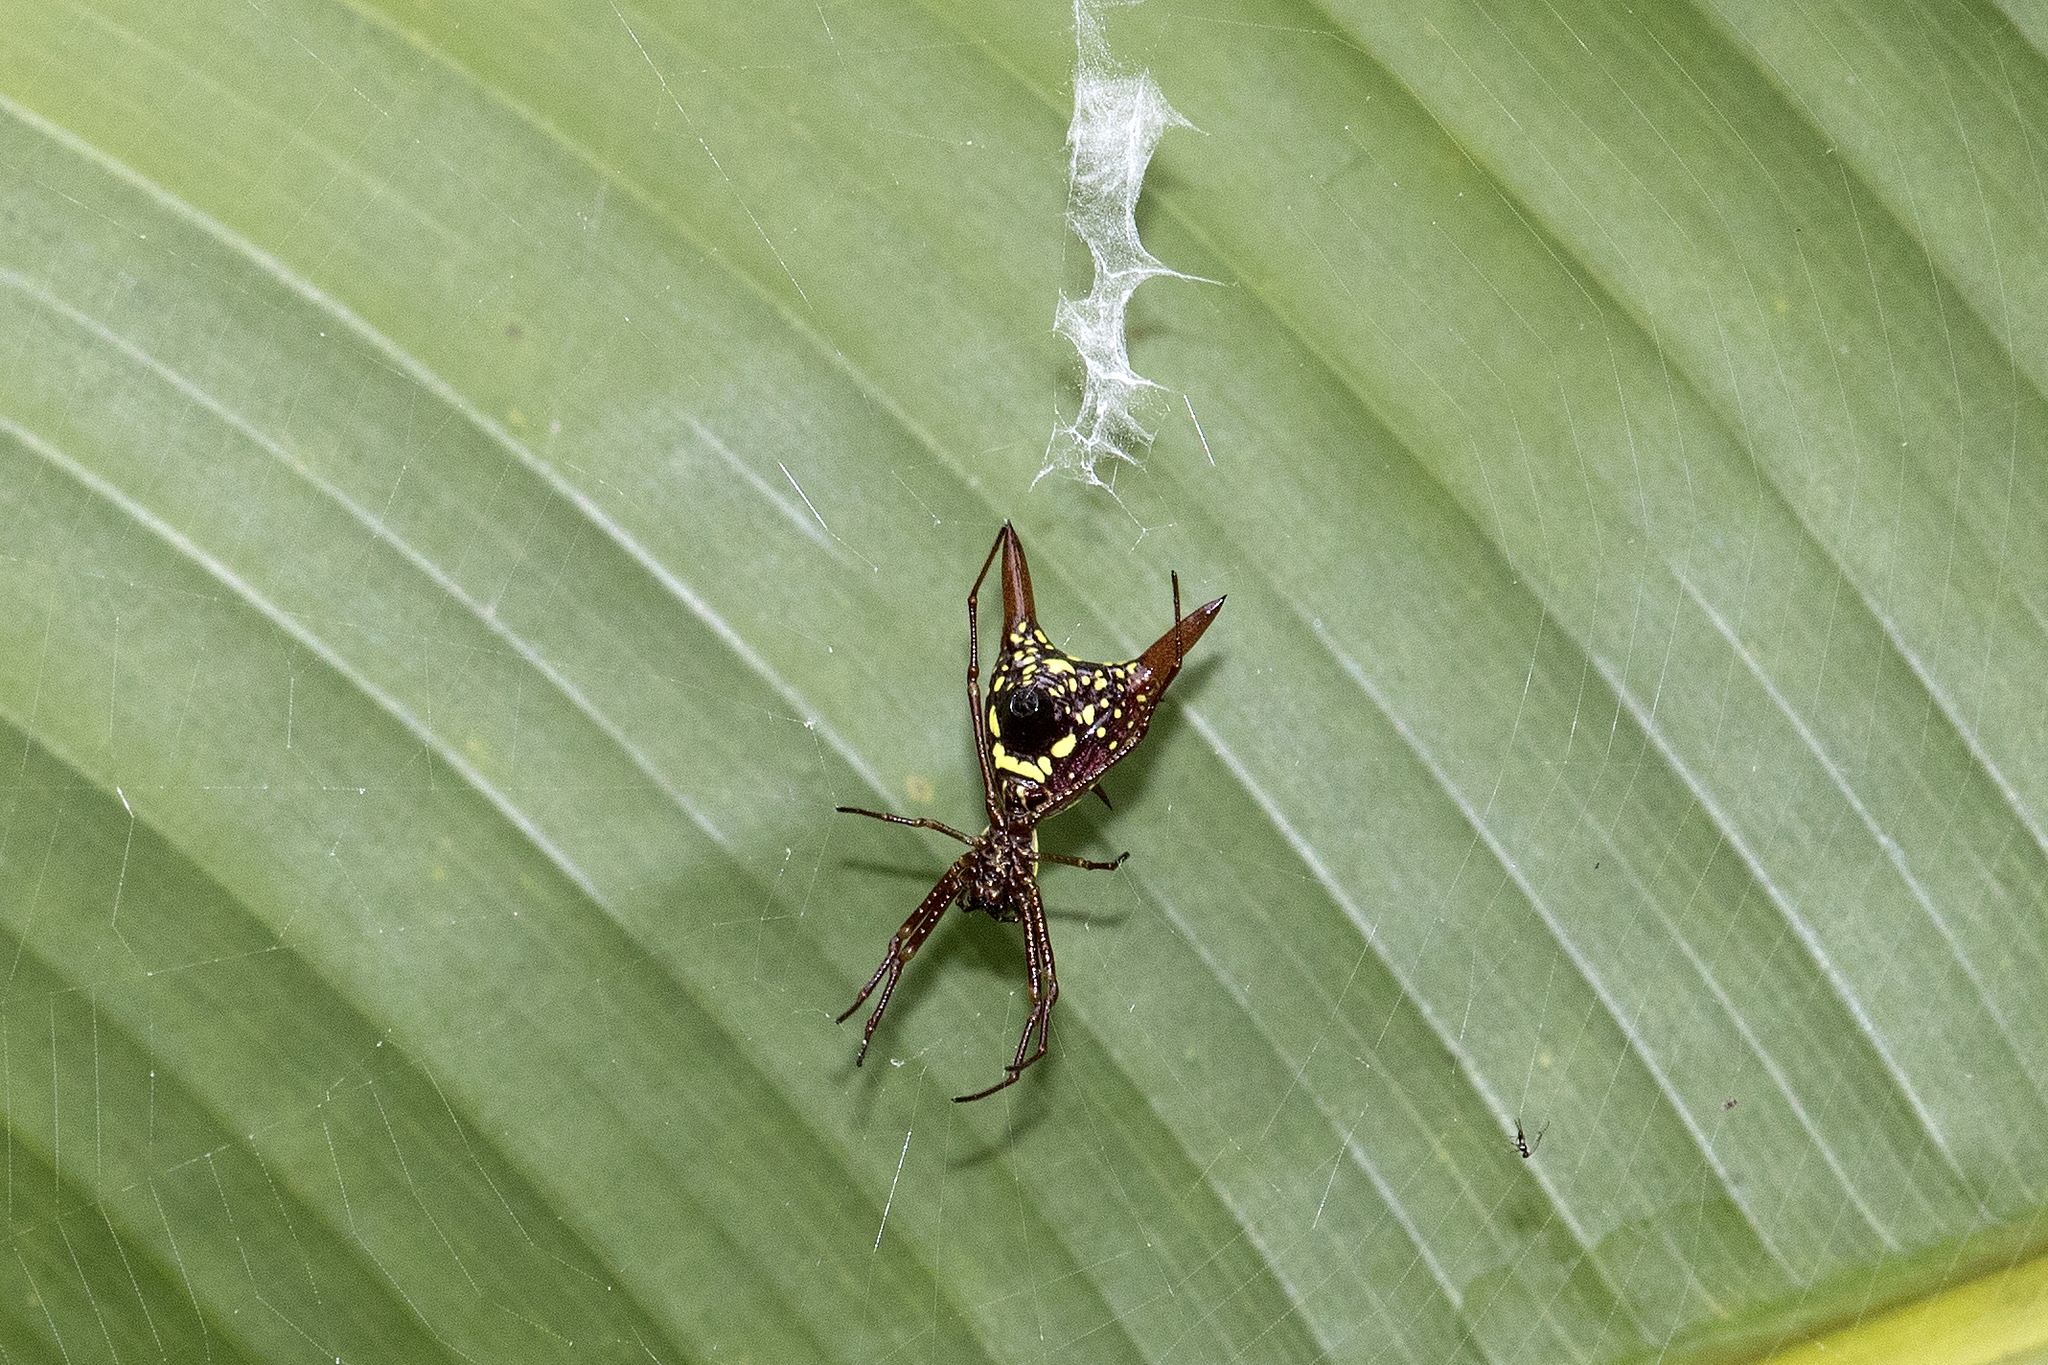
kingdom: Animalia
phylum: Arthropoda
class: Arachnida
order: Araneae
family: Araneidae
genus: Micrathena
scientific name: Micrathena sexspinosa
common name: Orb weavers
